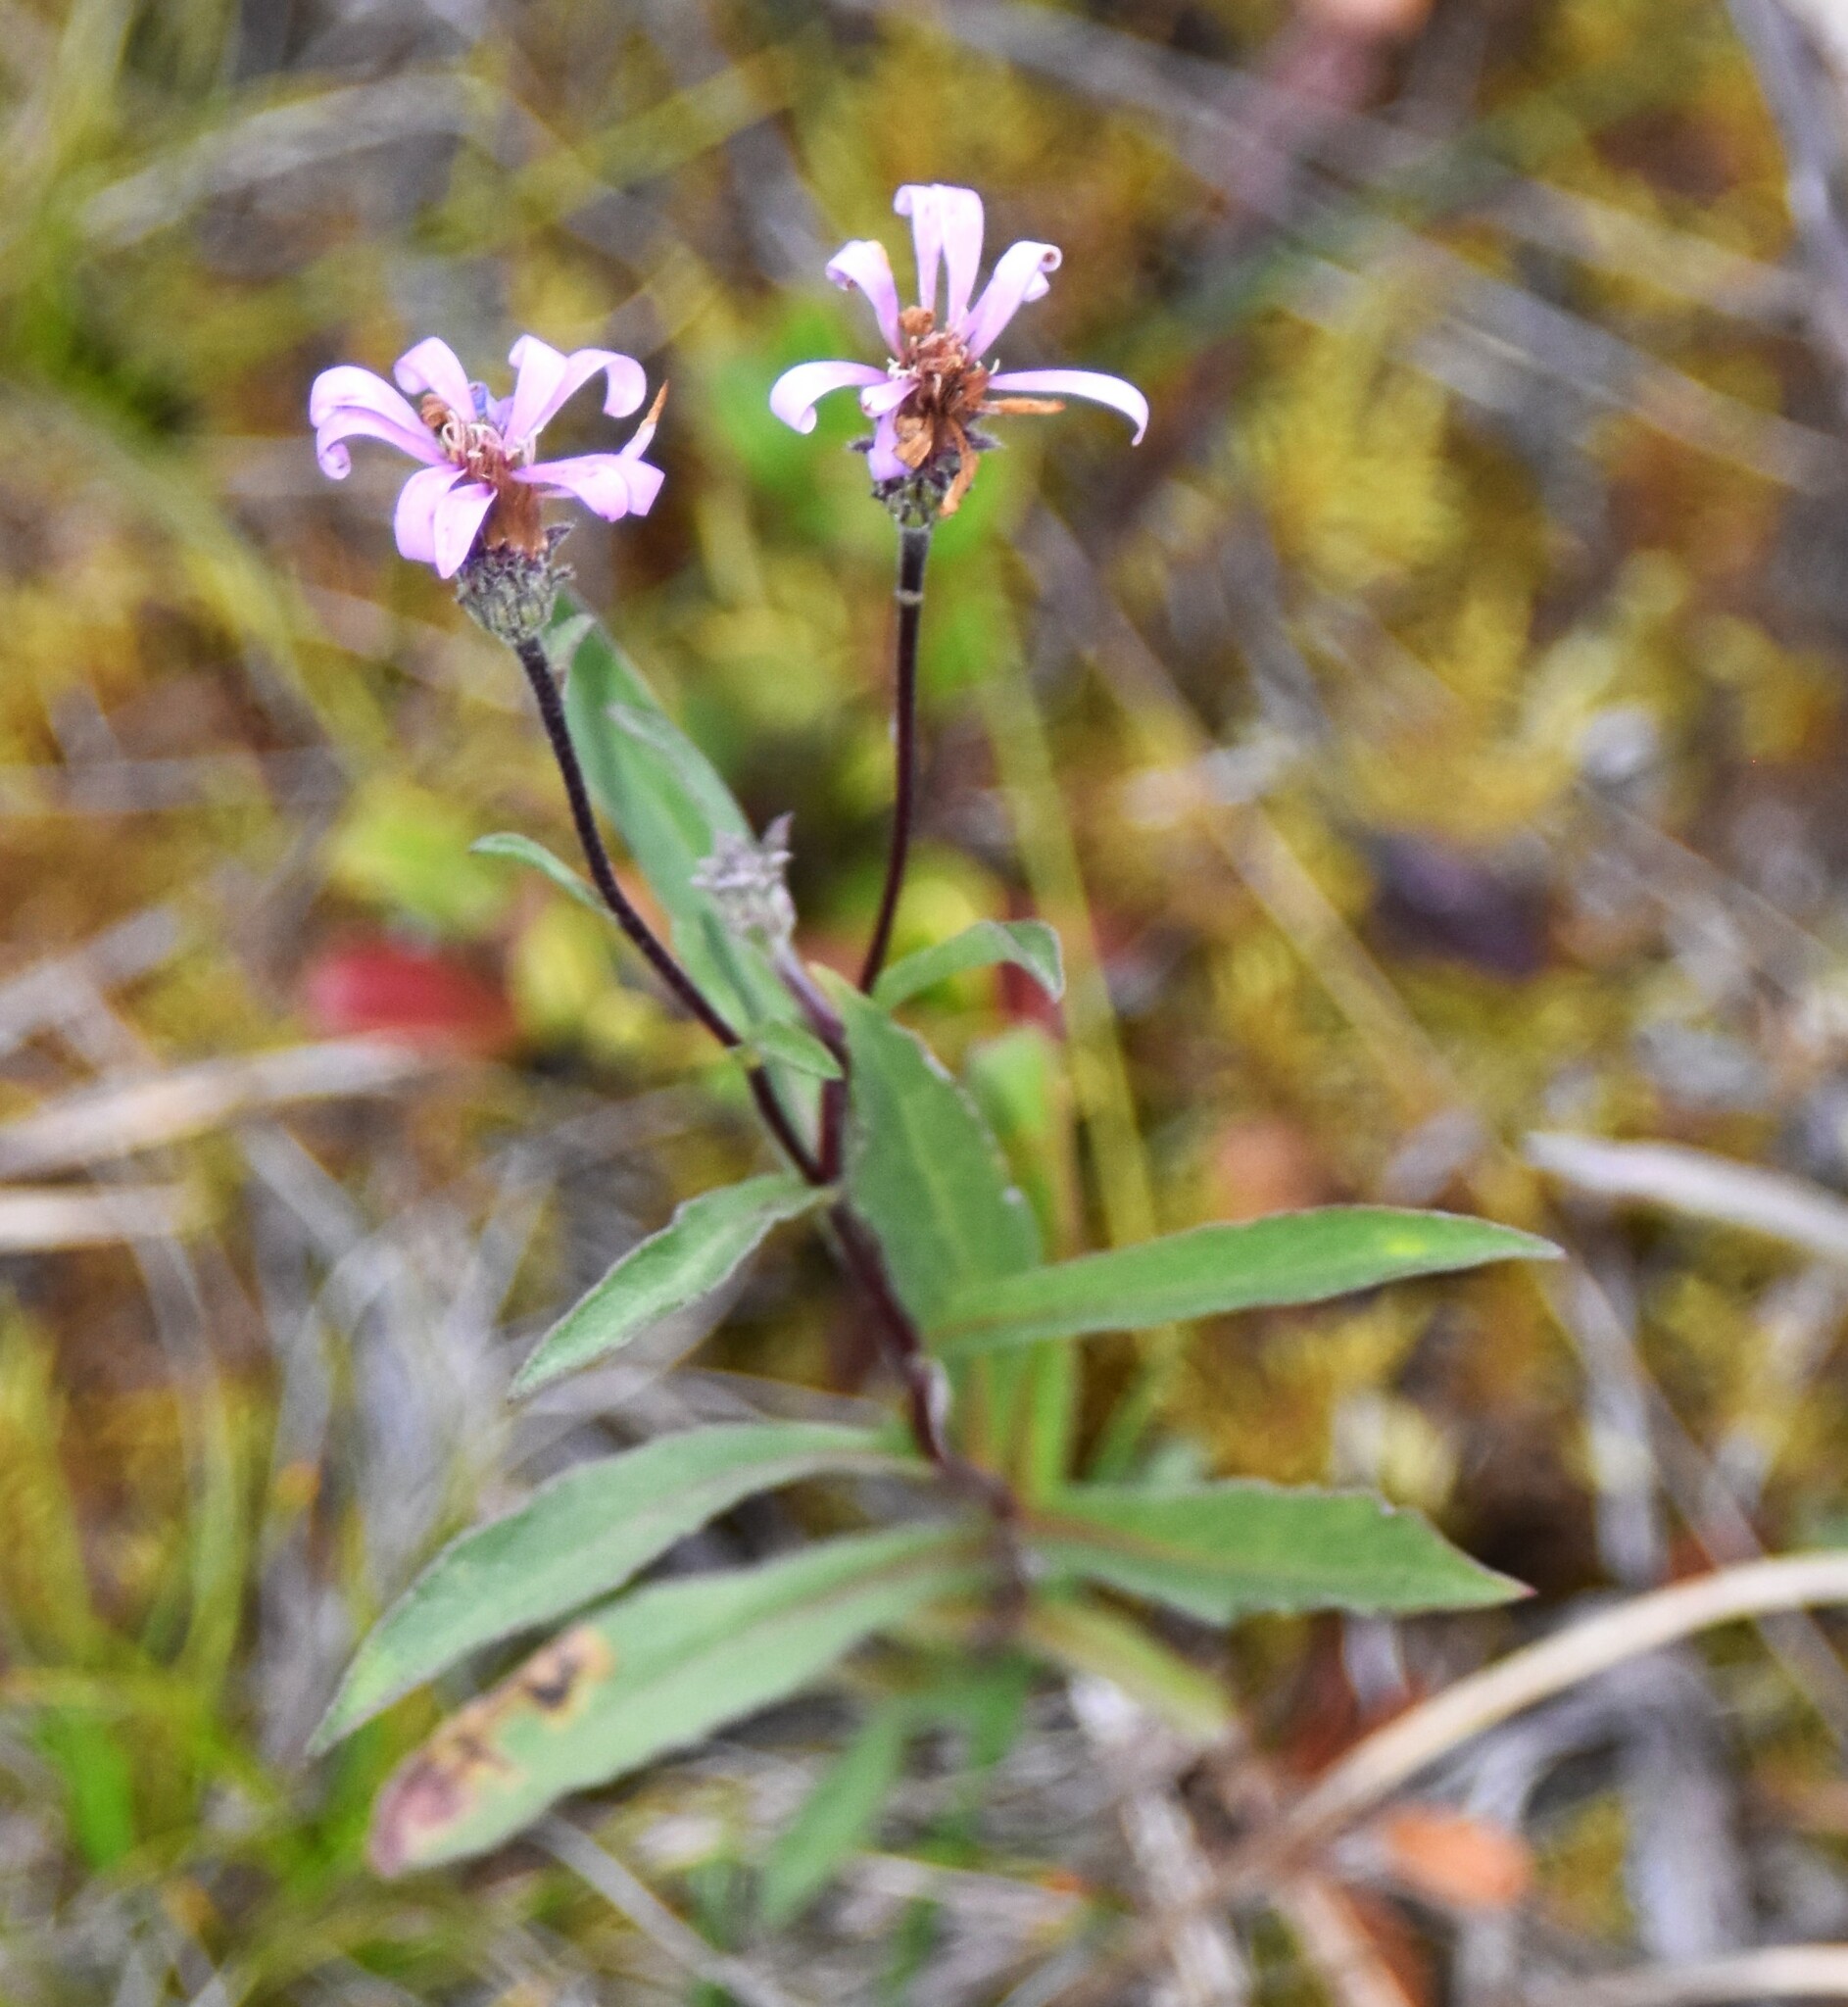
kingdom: Plantae
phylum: Tracheophyta
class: Magnoliopsida
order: Asterales
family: Asteraceae
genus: Eurybia
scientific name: Eurybia sibirica
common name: Arctic aster
